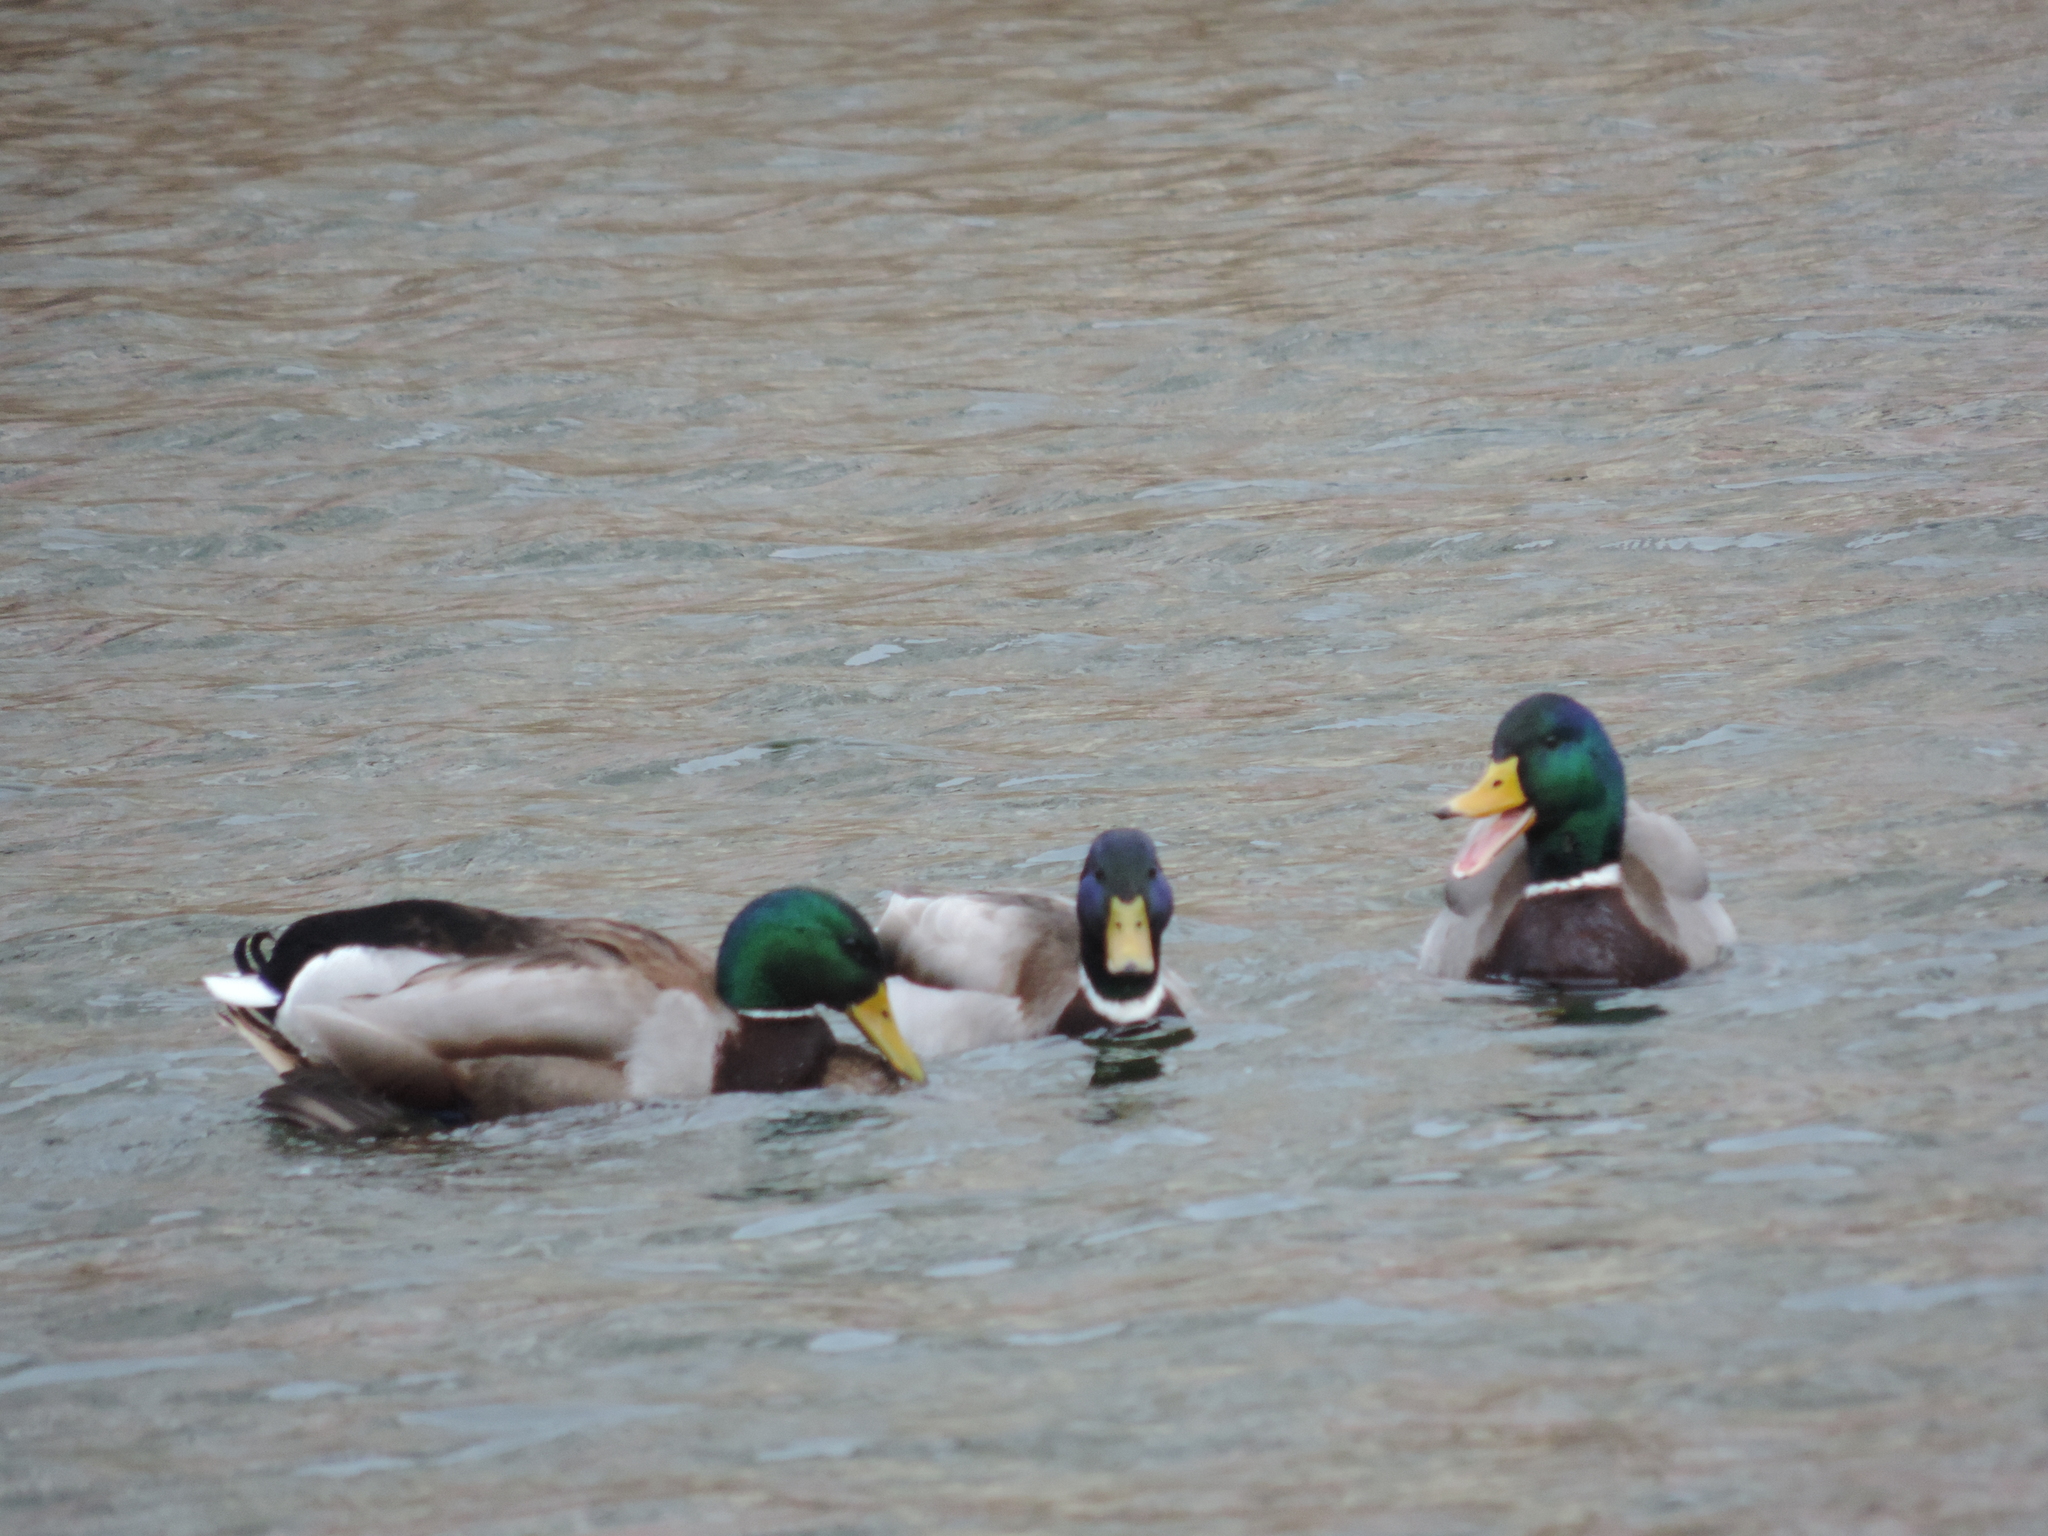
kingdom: Animalia
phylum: Chordata
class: Aves
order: Anseriformes
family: Anatidae
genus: Anas
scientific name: Anas platyrhynchos
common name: Mallard
